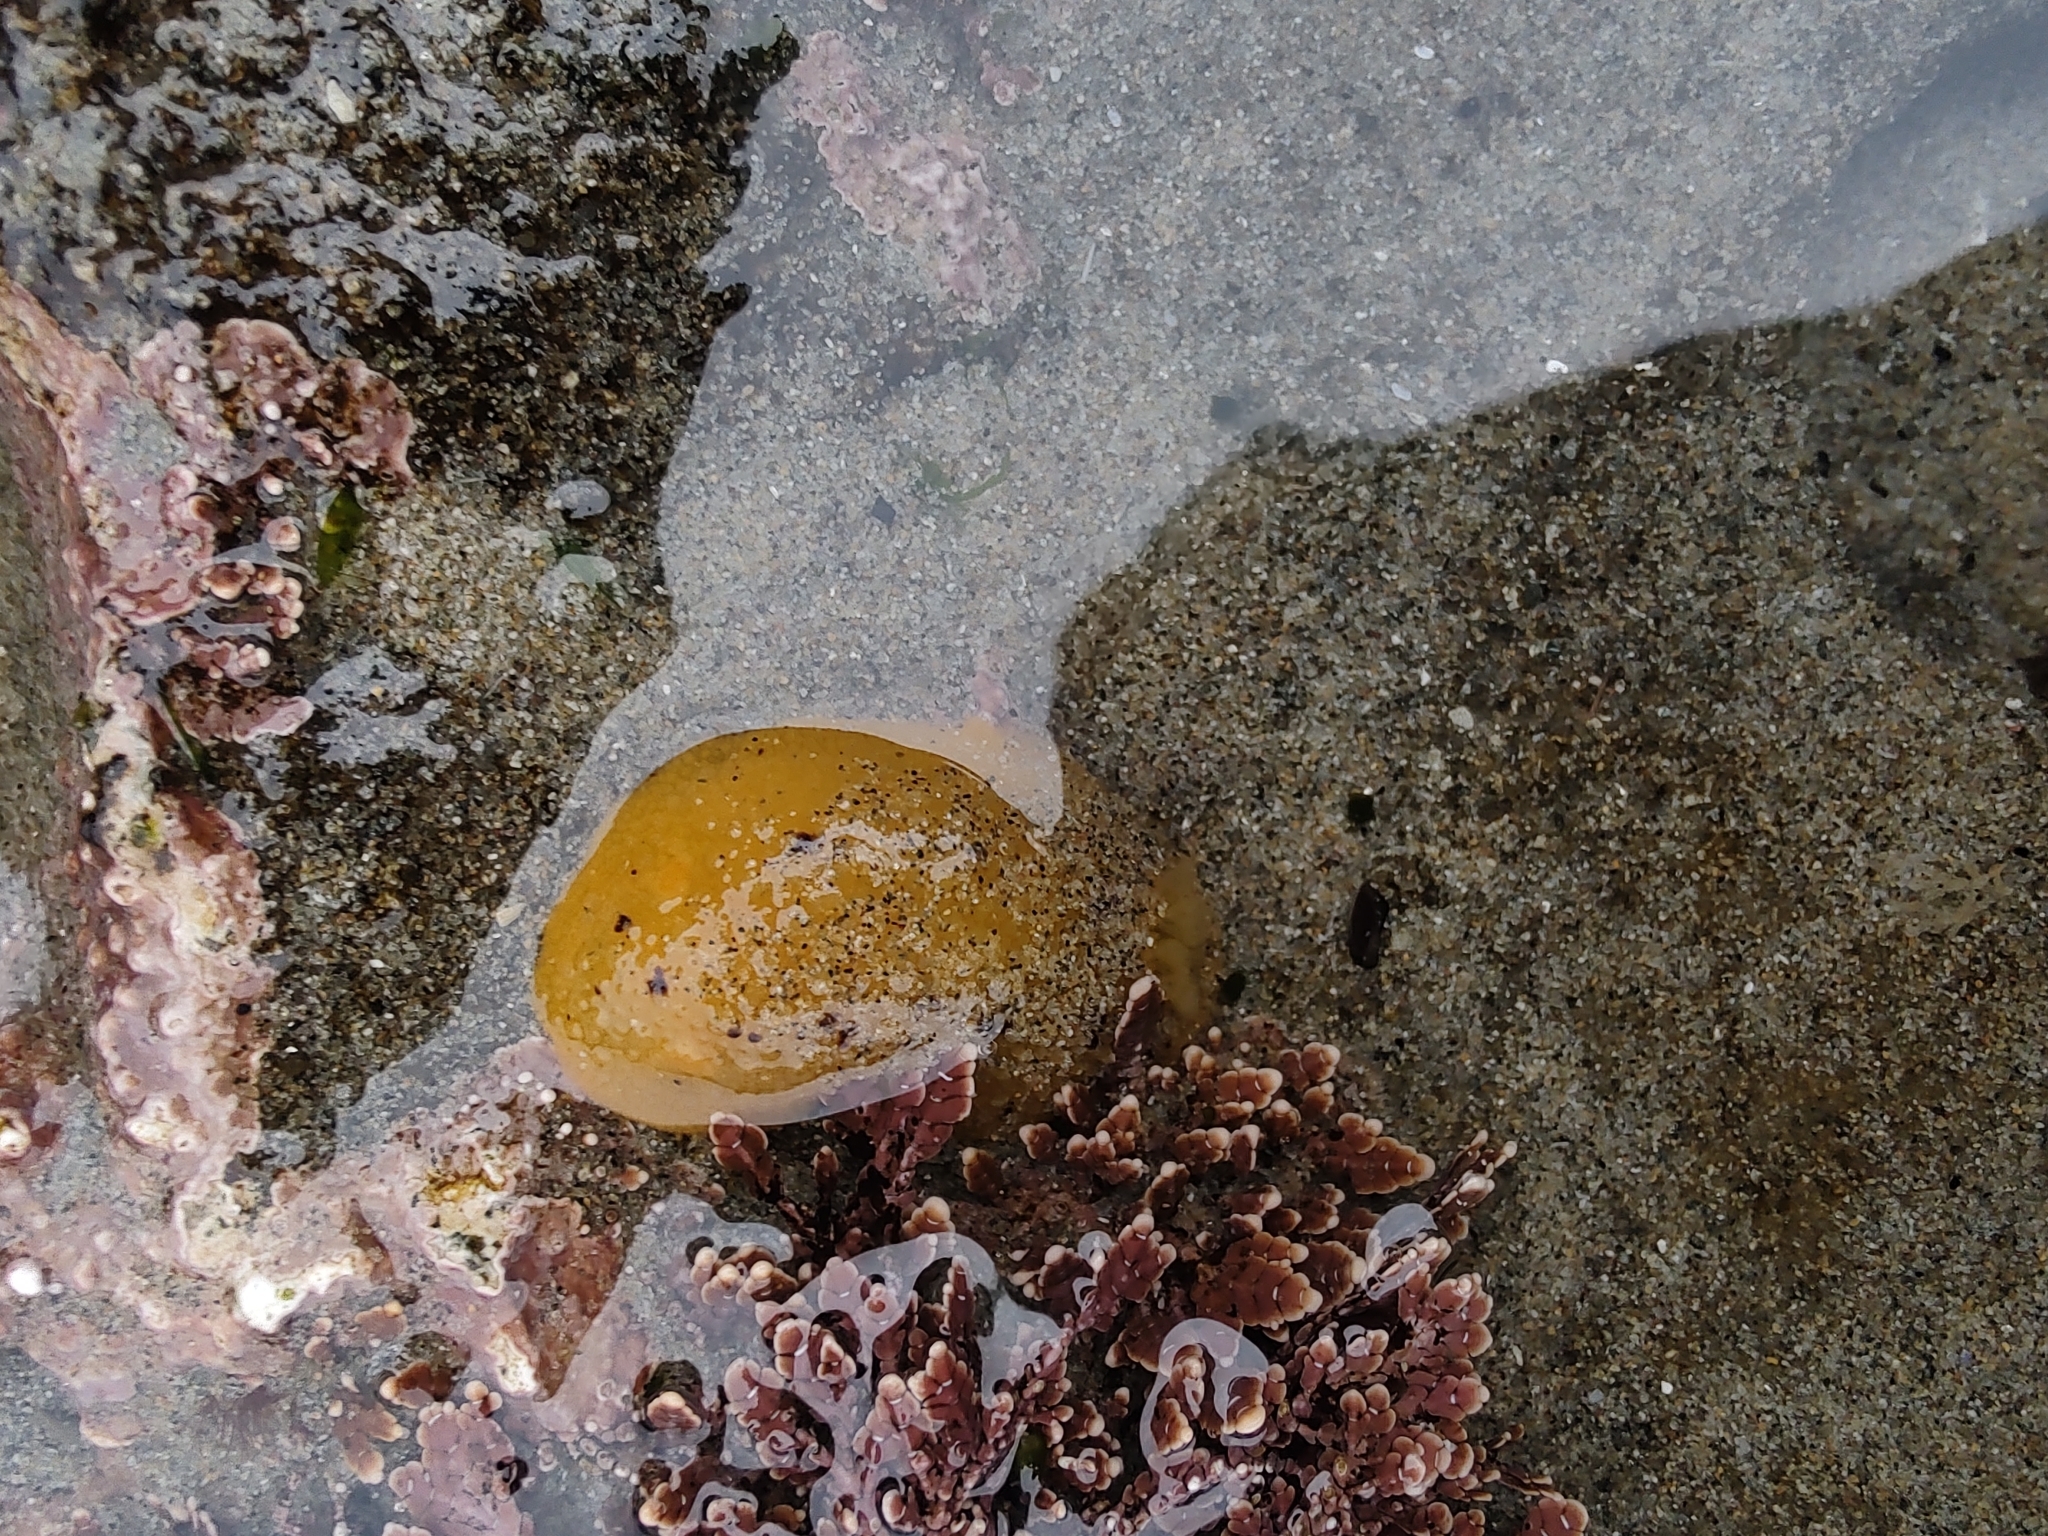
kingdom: Animalia
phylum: Mollusca
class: Gastropoda
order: Nudibranchia
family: Dorididae
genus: Doris
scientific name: Doris montereyensis
